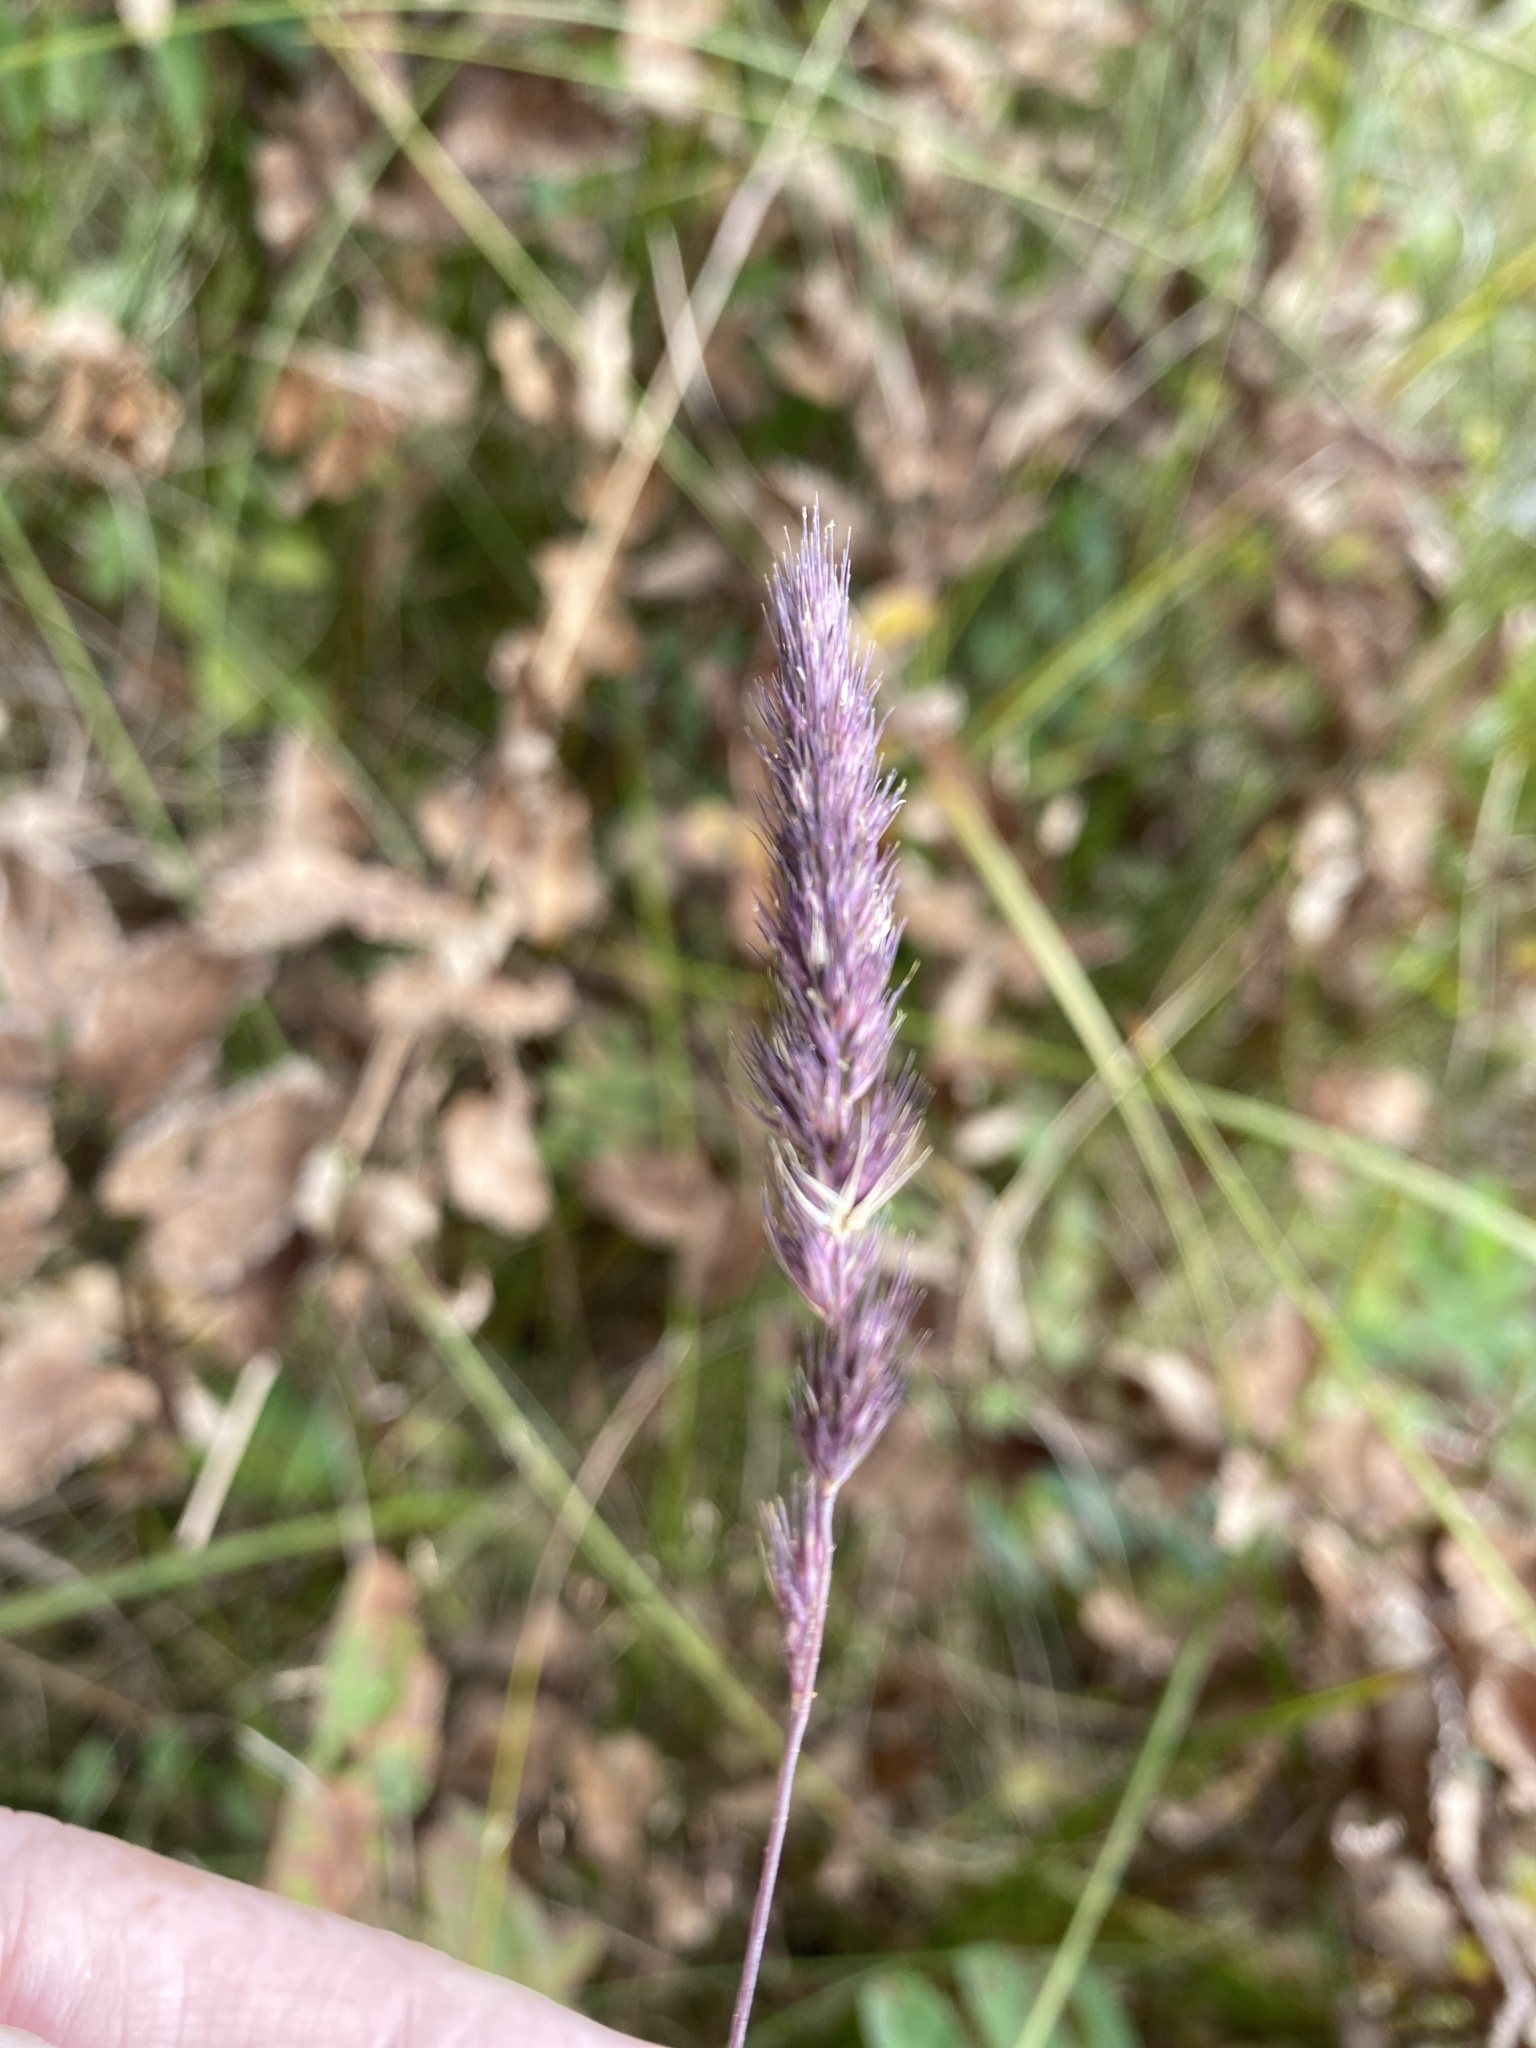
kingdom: Plantae
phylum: Tracheophyta
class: Liliopsida
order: Poales
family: Poaceae
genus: Muhlenbergia
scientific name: Muhlenbergia glomerata
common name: Bog muhly
